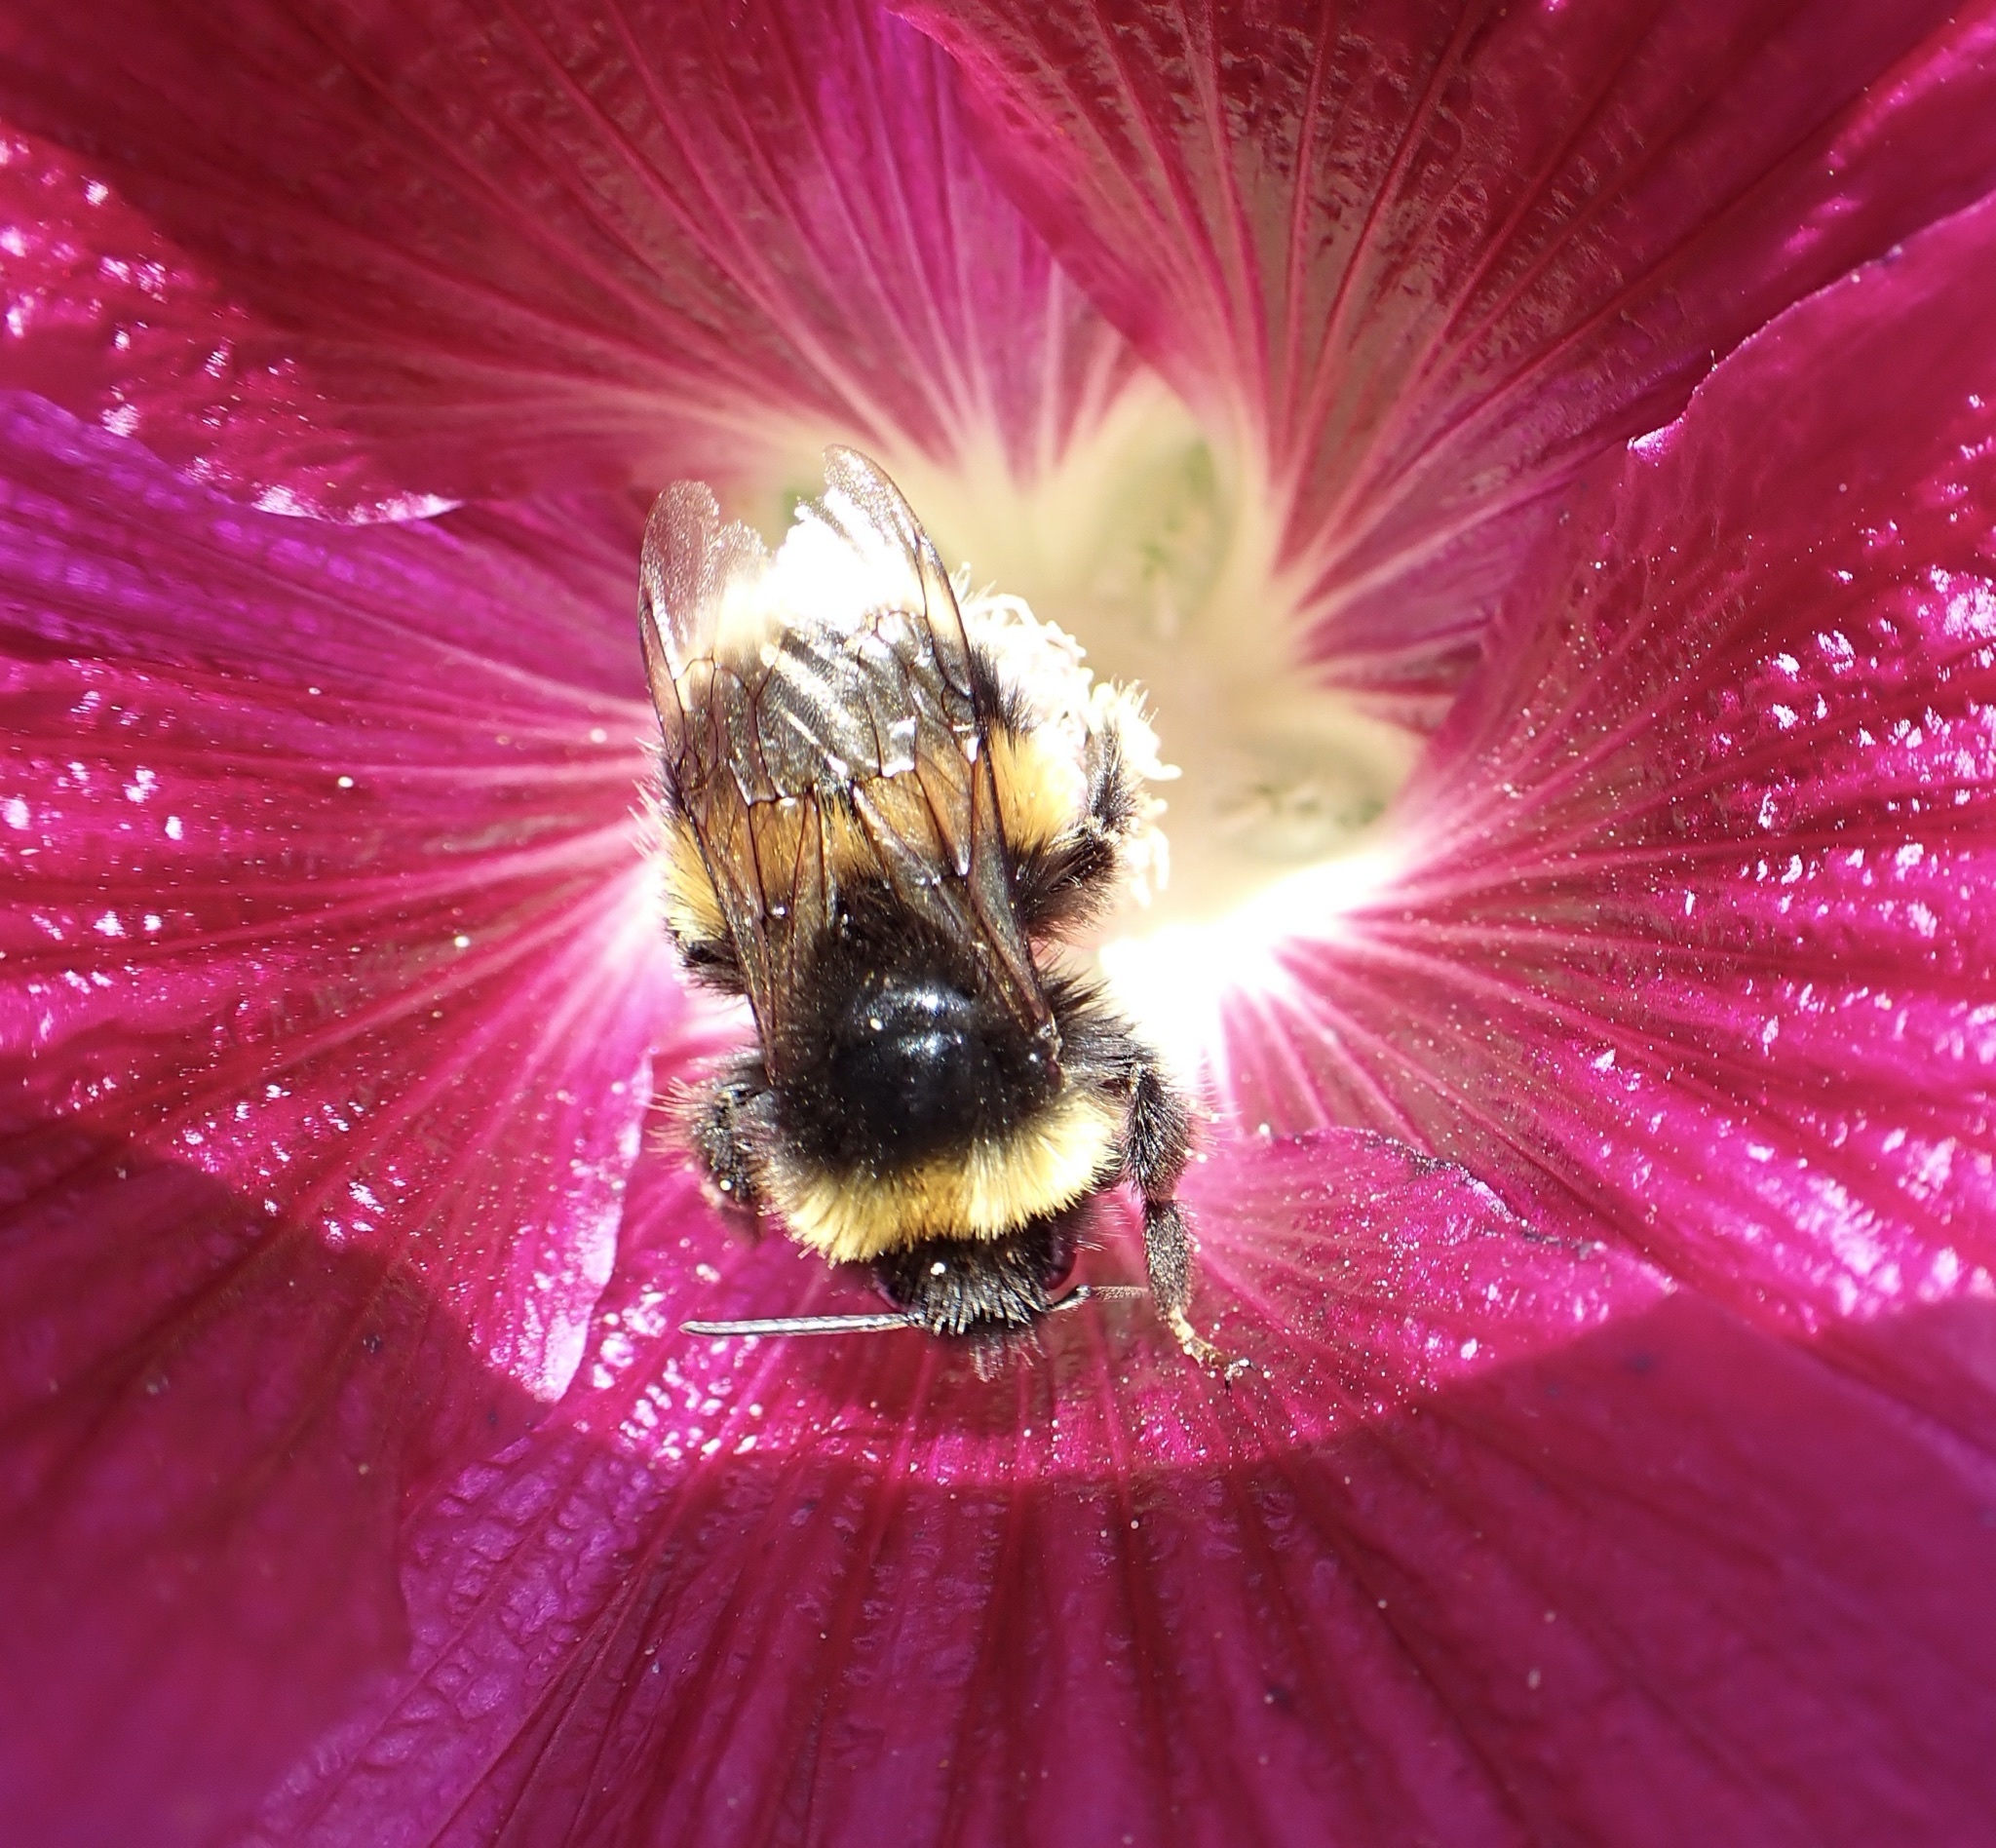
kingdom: Animalia
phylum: Arthropoda
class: Insecta
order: Hymenoptera
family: Apidae
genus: Bombus
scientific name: Bombus terrestris
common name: Buff-tailed bumblebee
